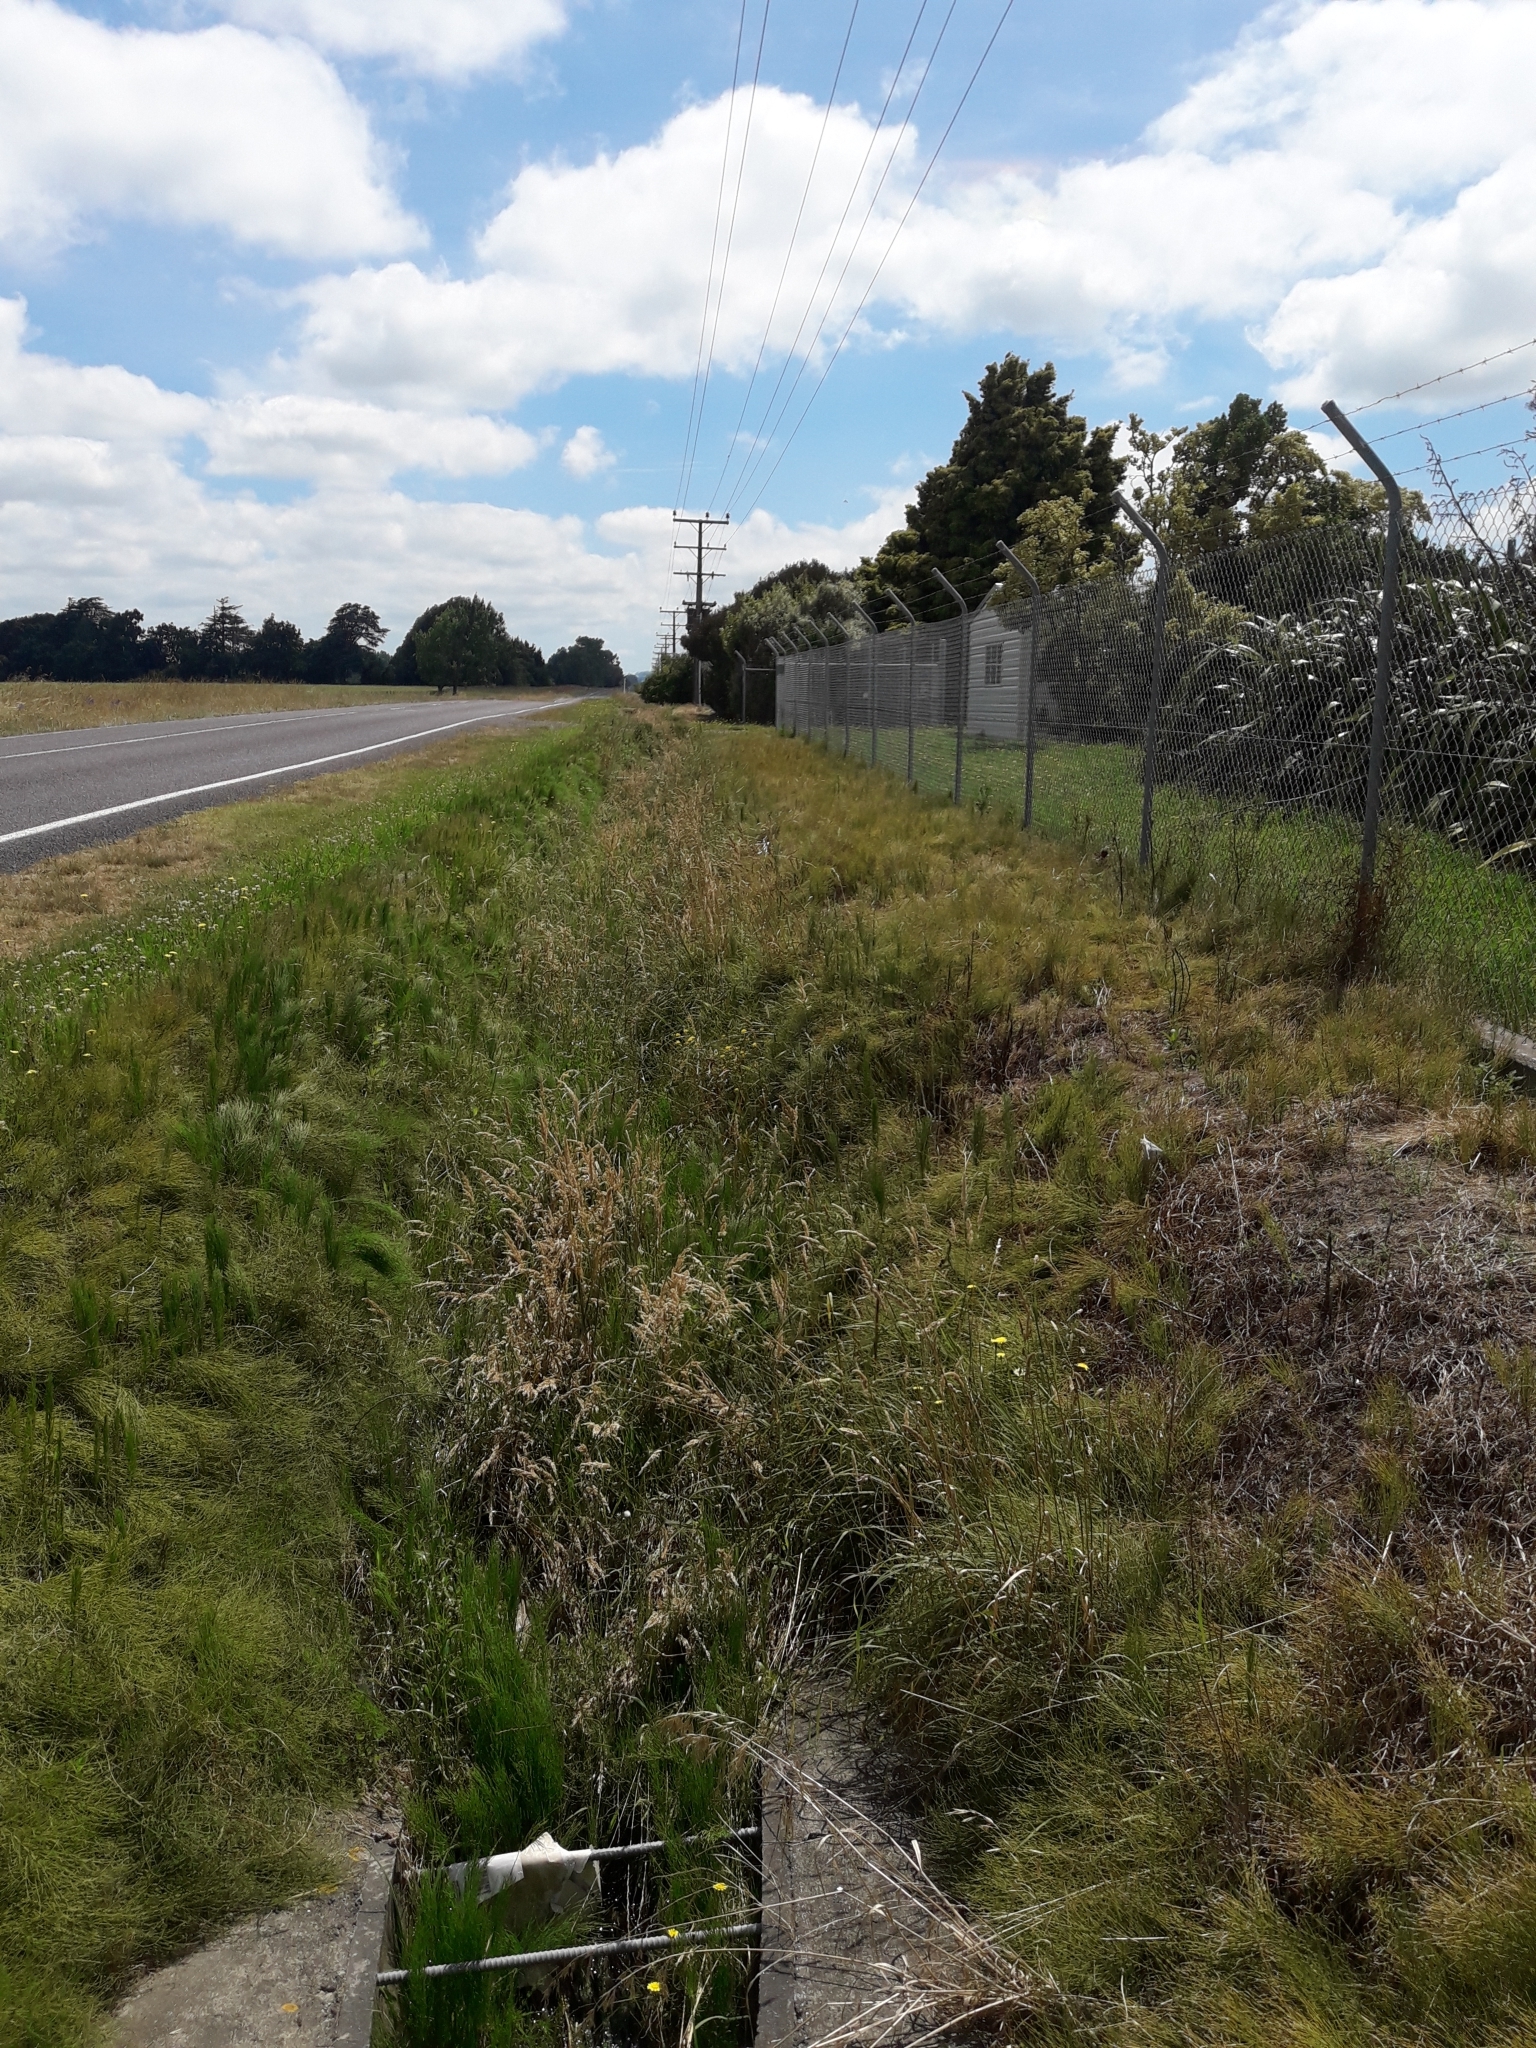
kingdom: Plantae
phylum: Tracheophyta
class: Polypodiopsida
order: Equisetales
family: Equisetaceae
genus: Equisetum
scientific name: Equisetum arvense
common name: Field horsetail
